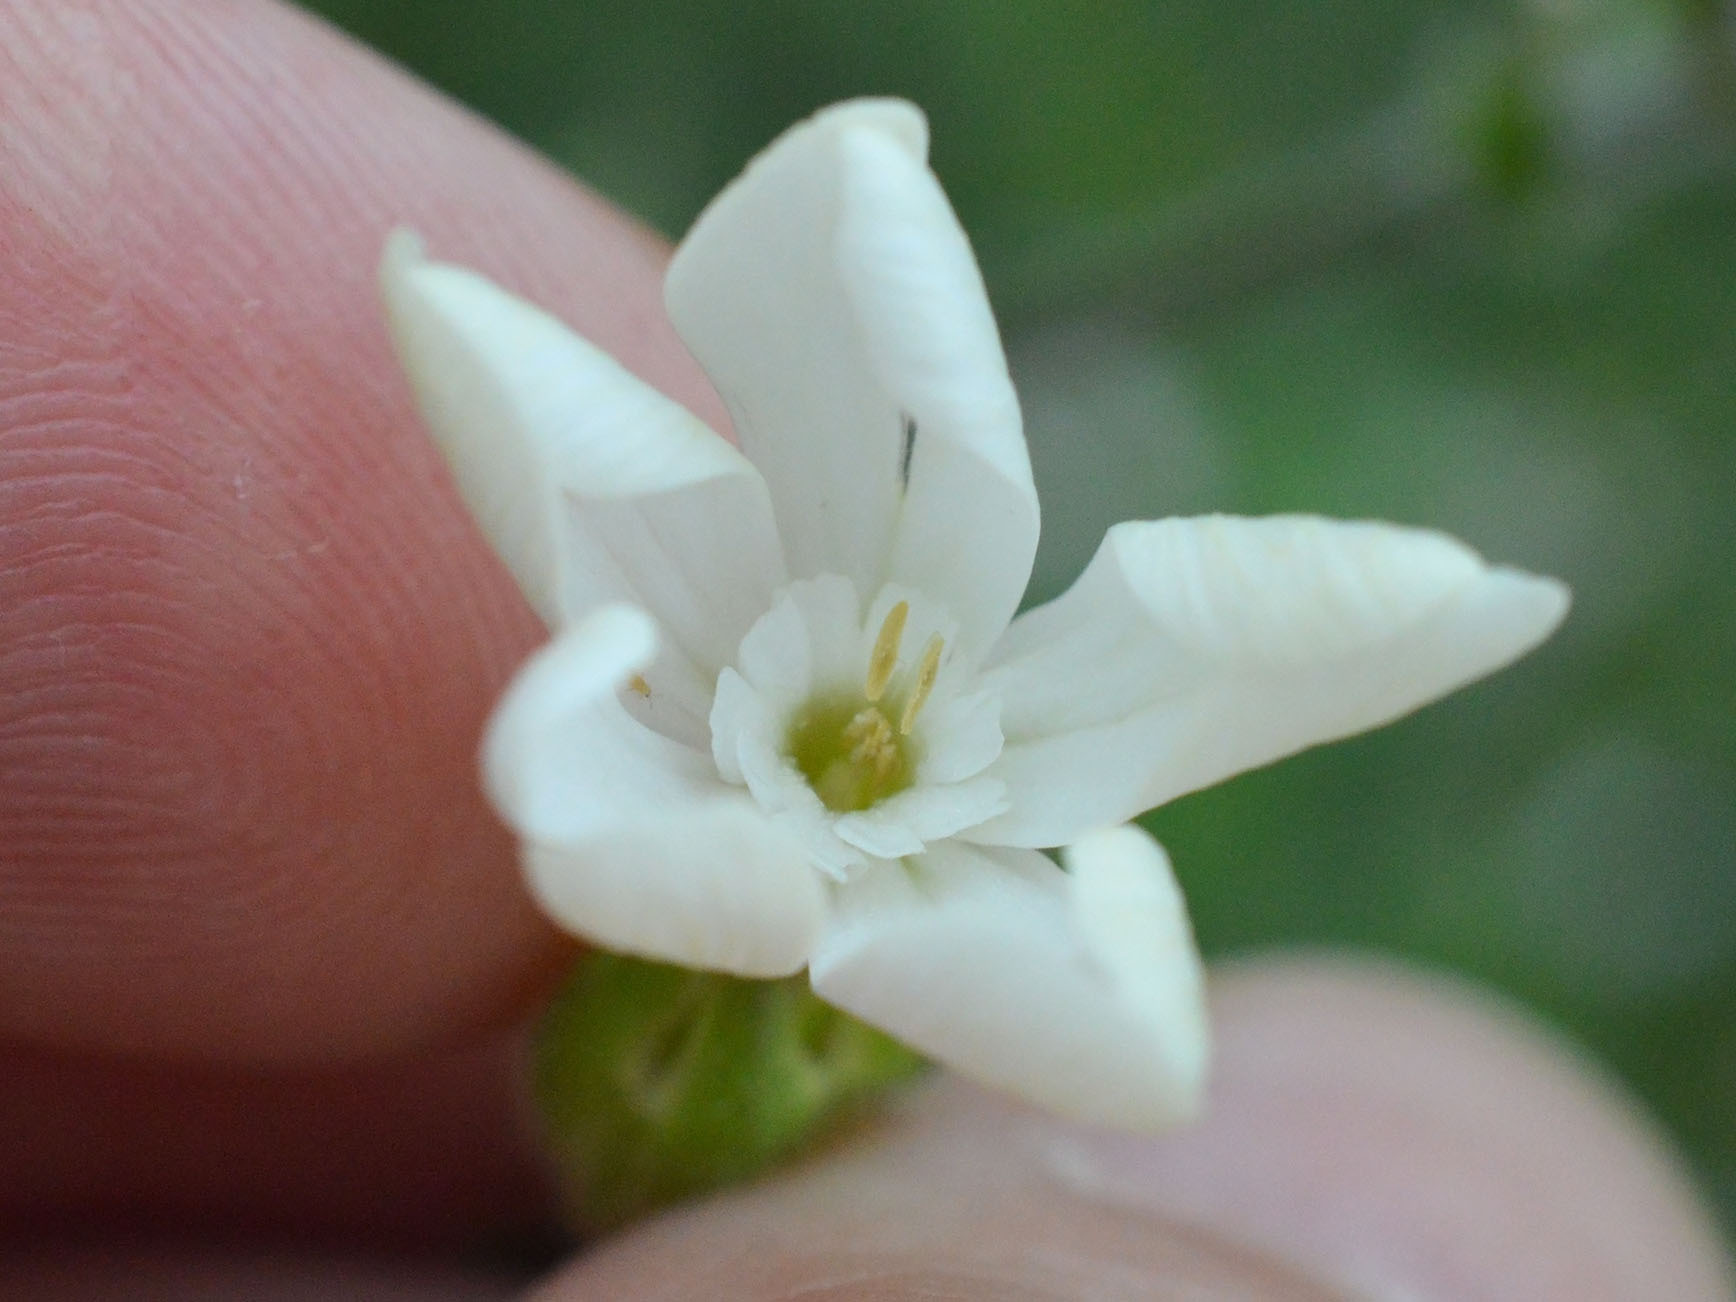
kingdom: Plantae
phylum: Tracheophyta
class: Magnoliopsida
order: Caryophyllales
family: Caryophyllaceae
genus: Silene
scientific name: Silene latifolia
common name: White campion
